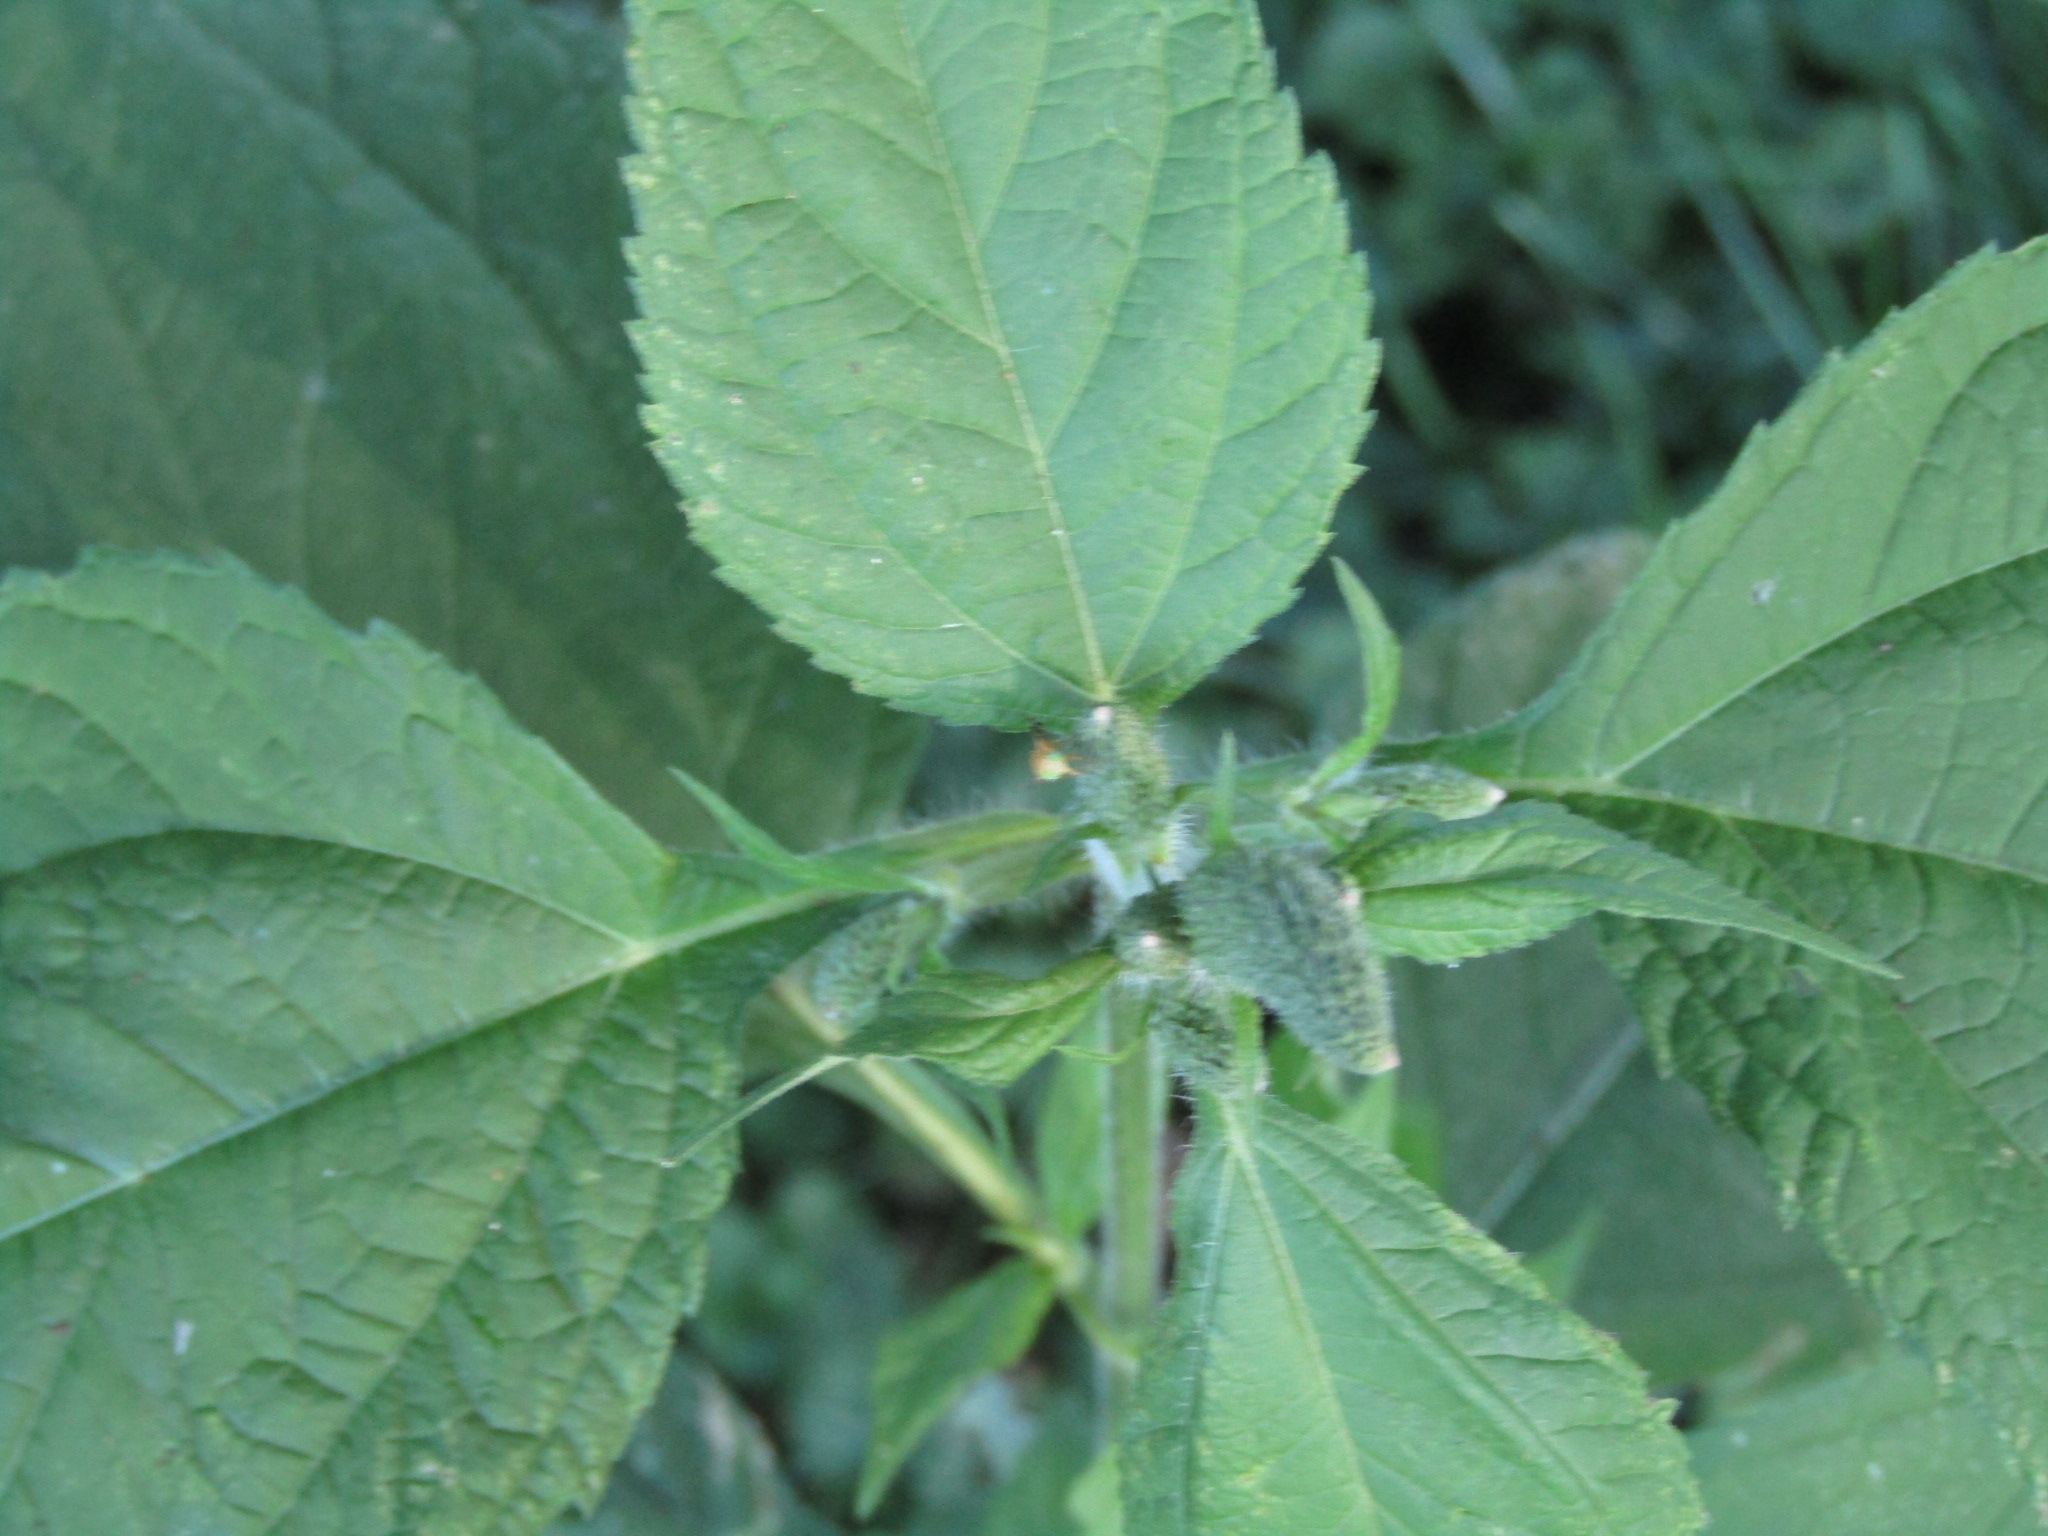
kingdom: Animalia
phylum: Arthropoda
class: Insecta
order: Diptera
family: Tephritidae
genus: Euaresta
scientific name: Euaresta festiva
